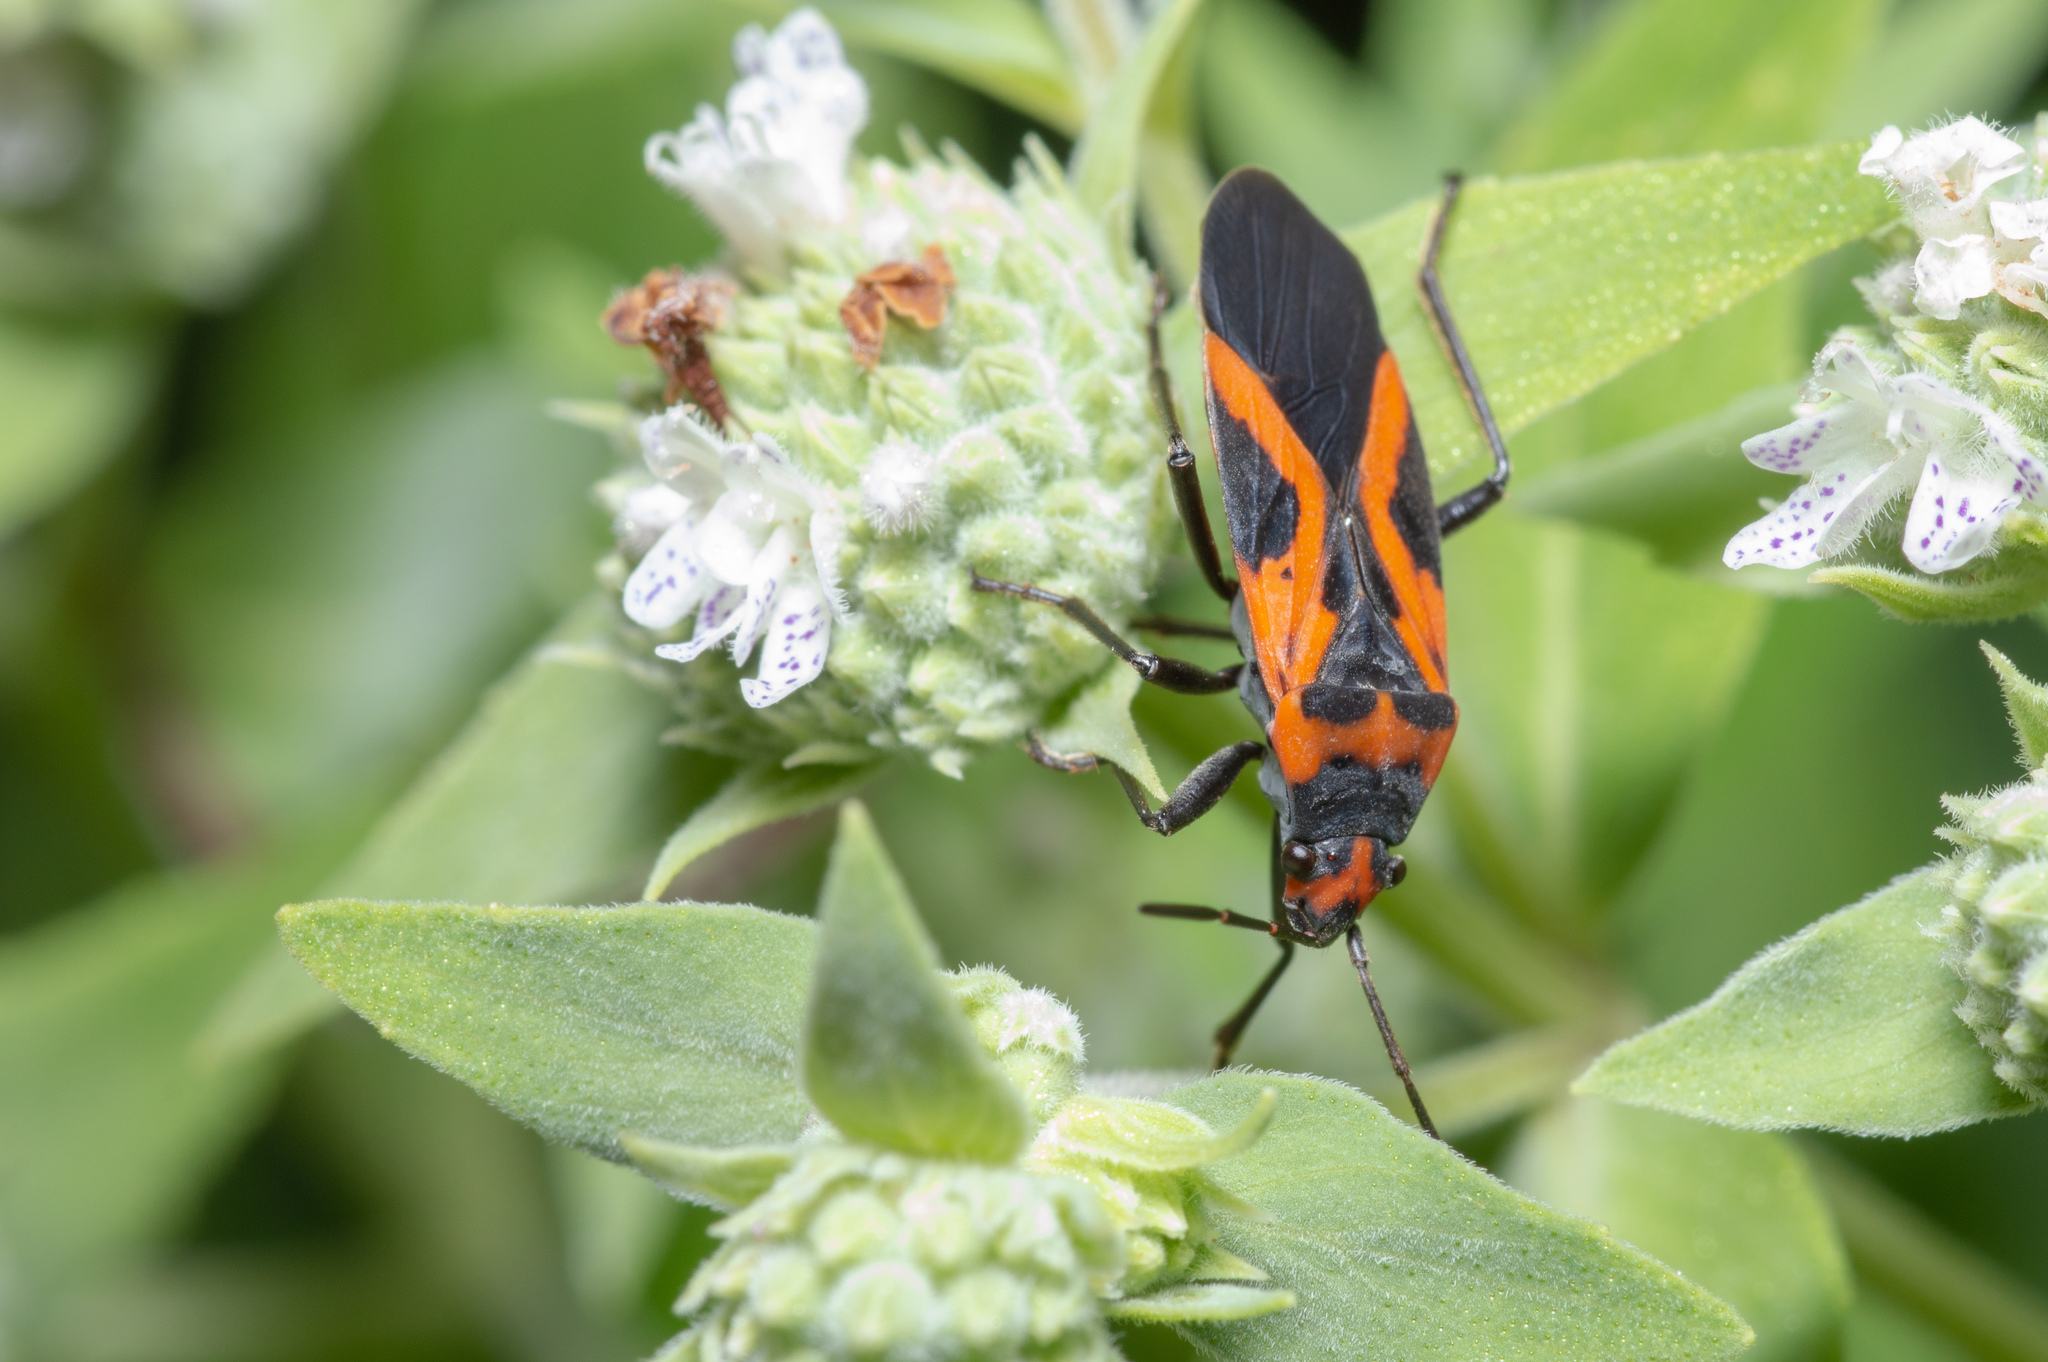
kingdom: Animalia
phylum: Arthropoda
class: Insecta
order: Hemiptera
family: Lygaeidae
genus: Lygaeus
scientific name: Lygaeus turcicus
